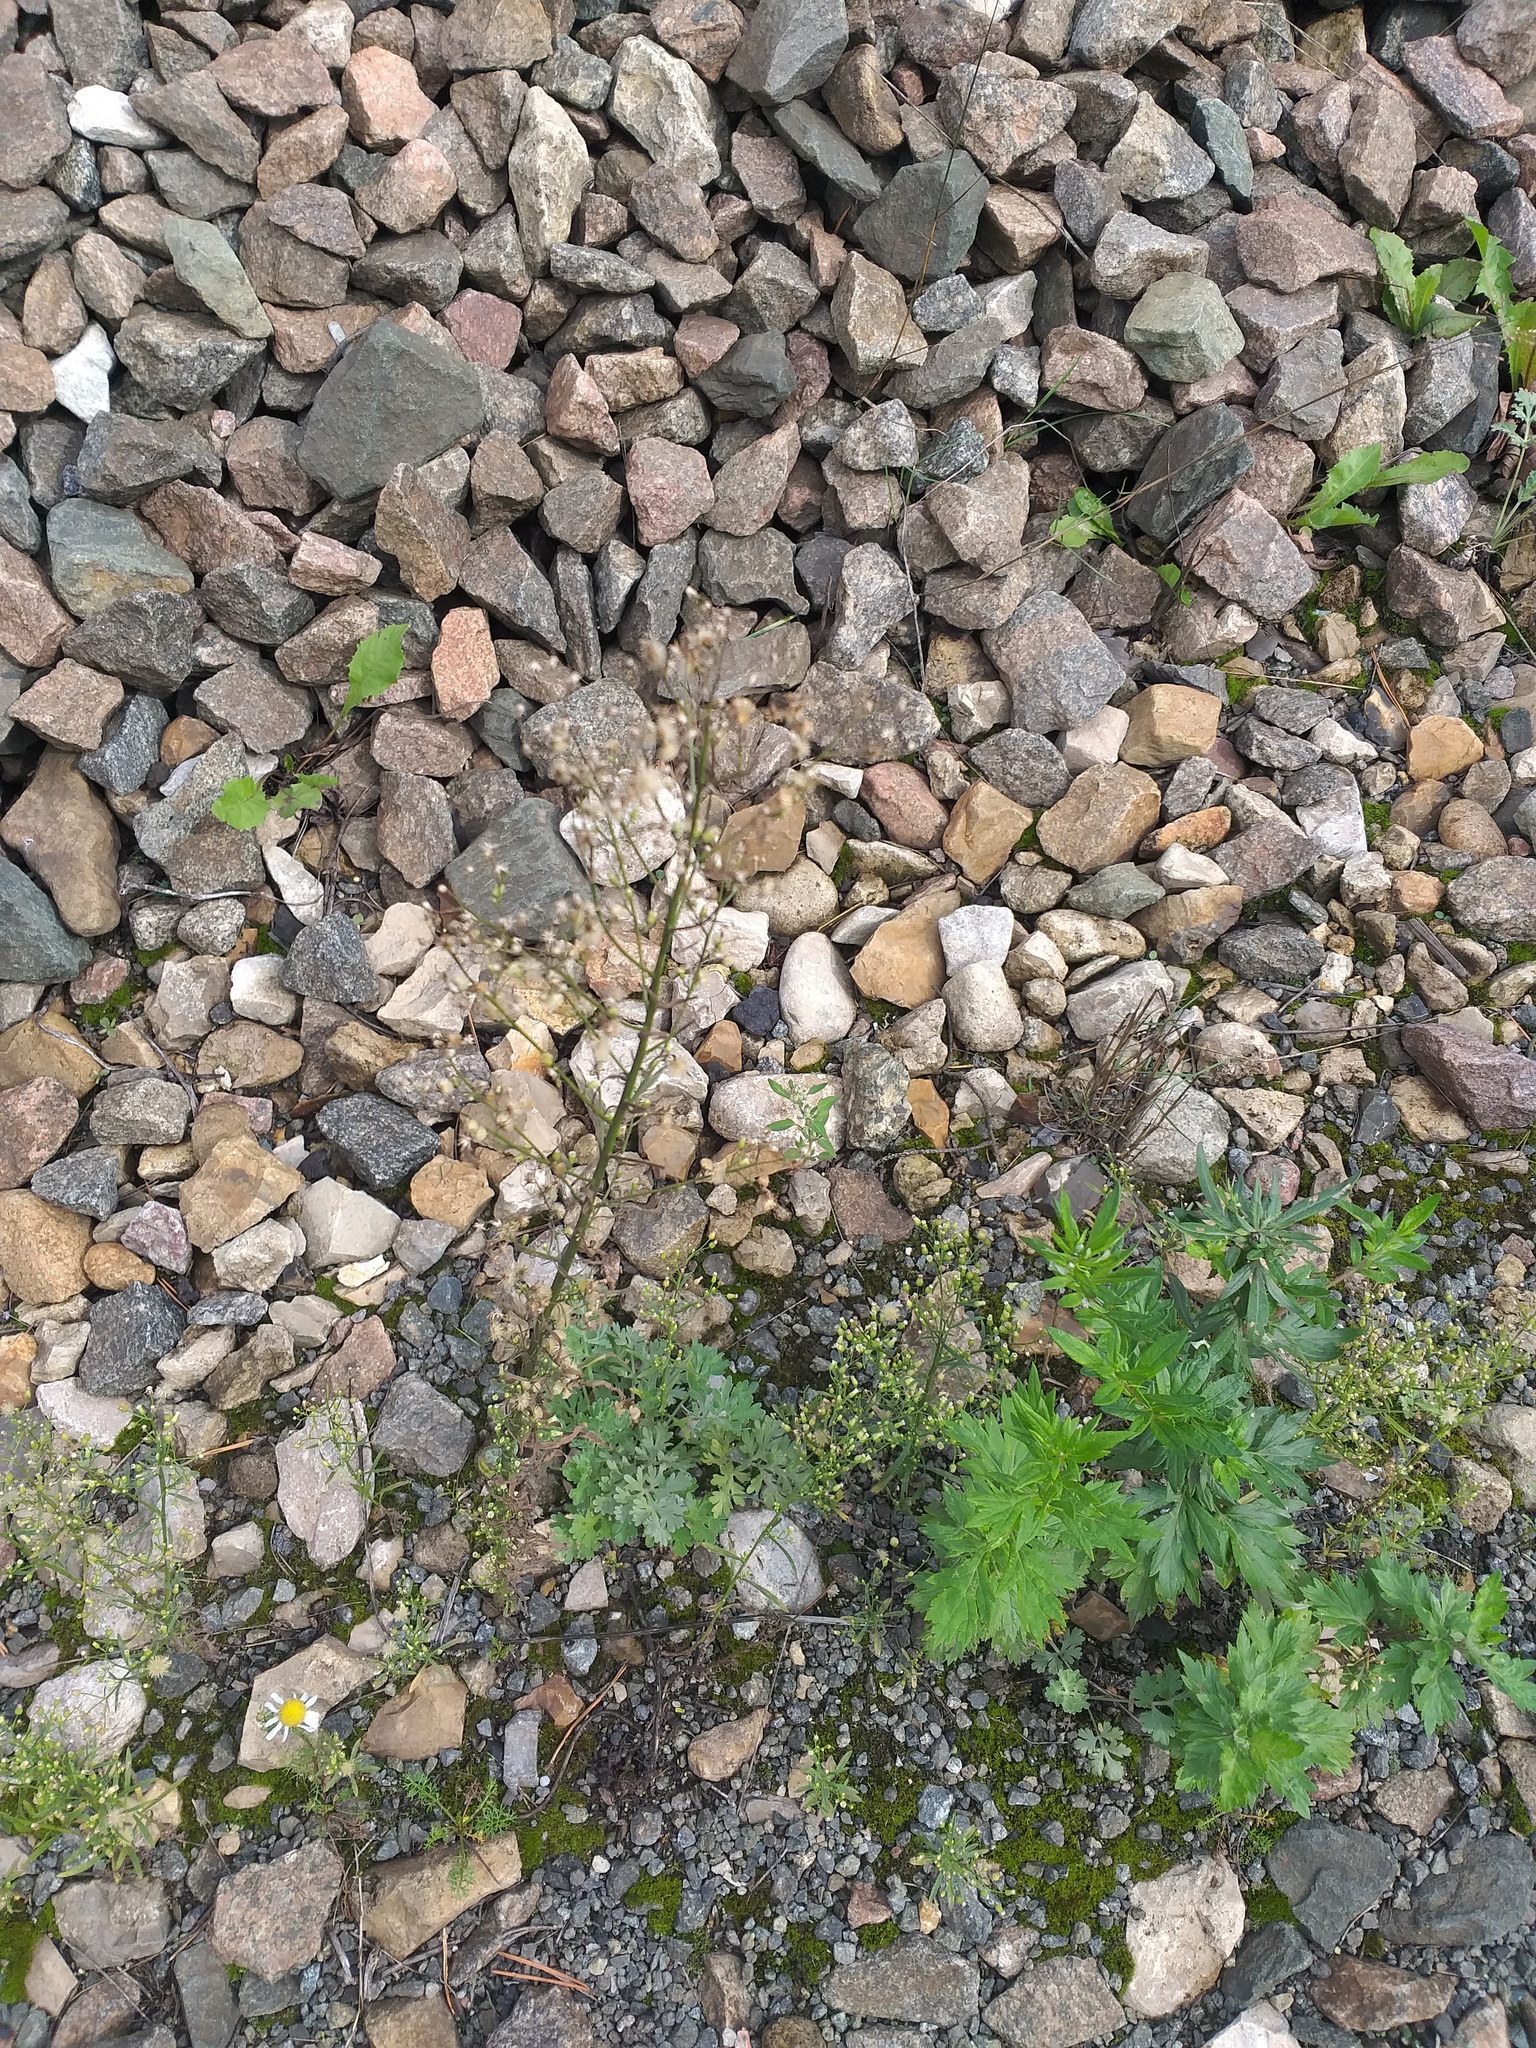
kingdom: Plantae
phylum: Tracheophyta
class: Magnoliopsida
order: Asterales
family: Asteraceae
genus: Erigeron
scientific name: Erigeron canadensis
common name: Canadian fleabane
